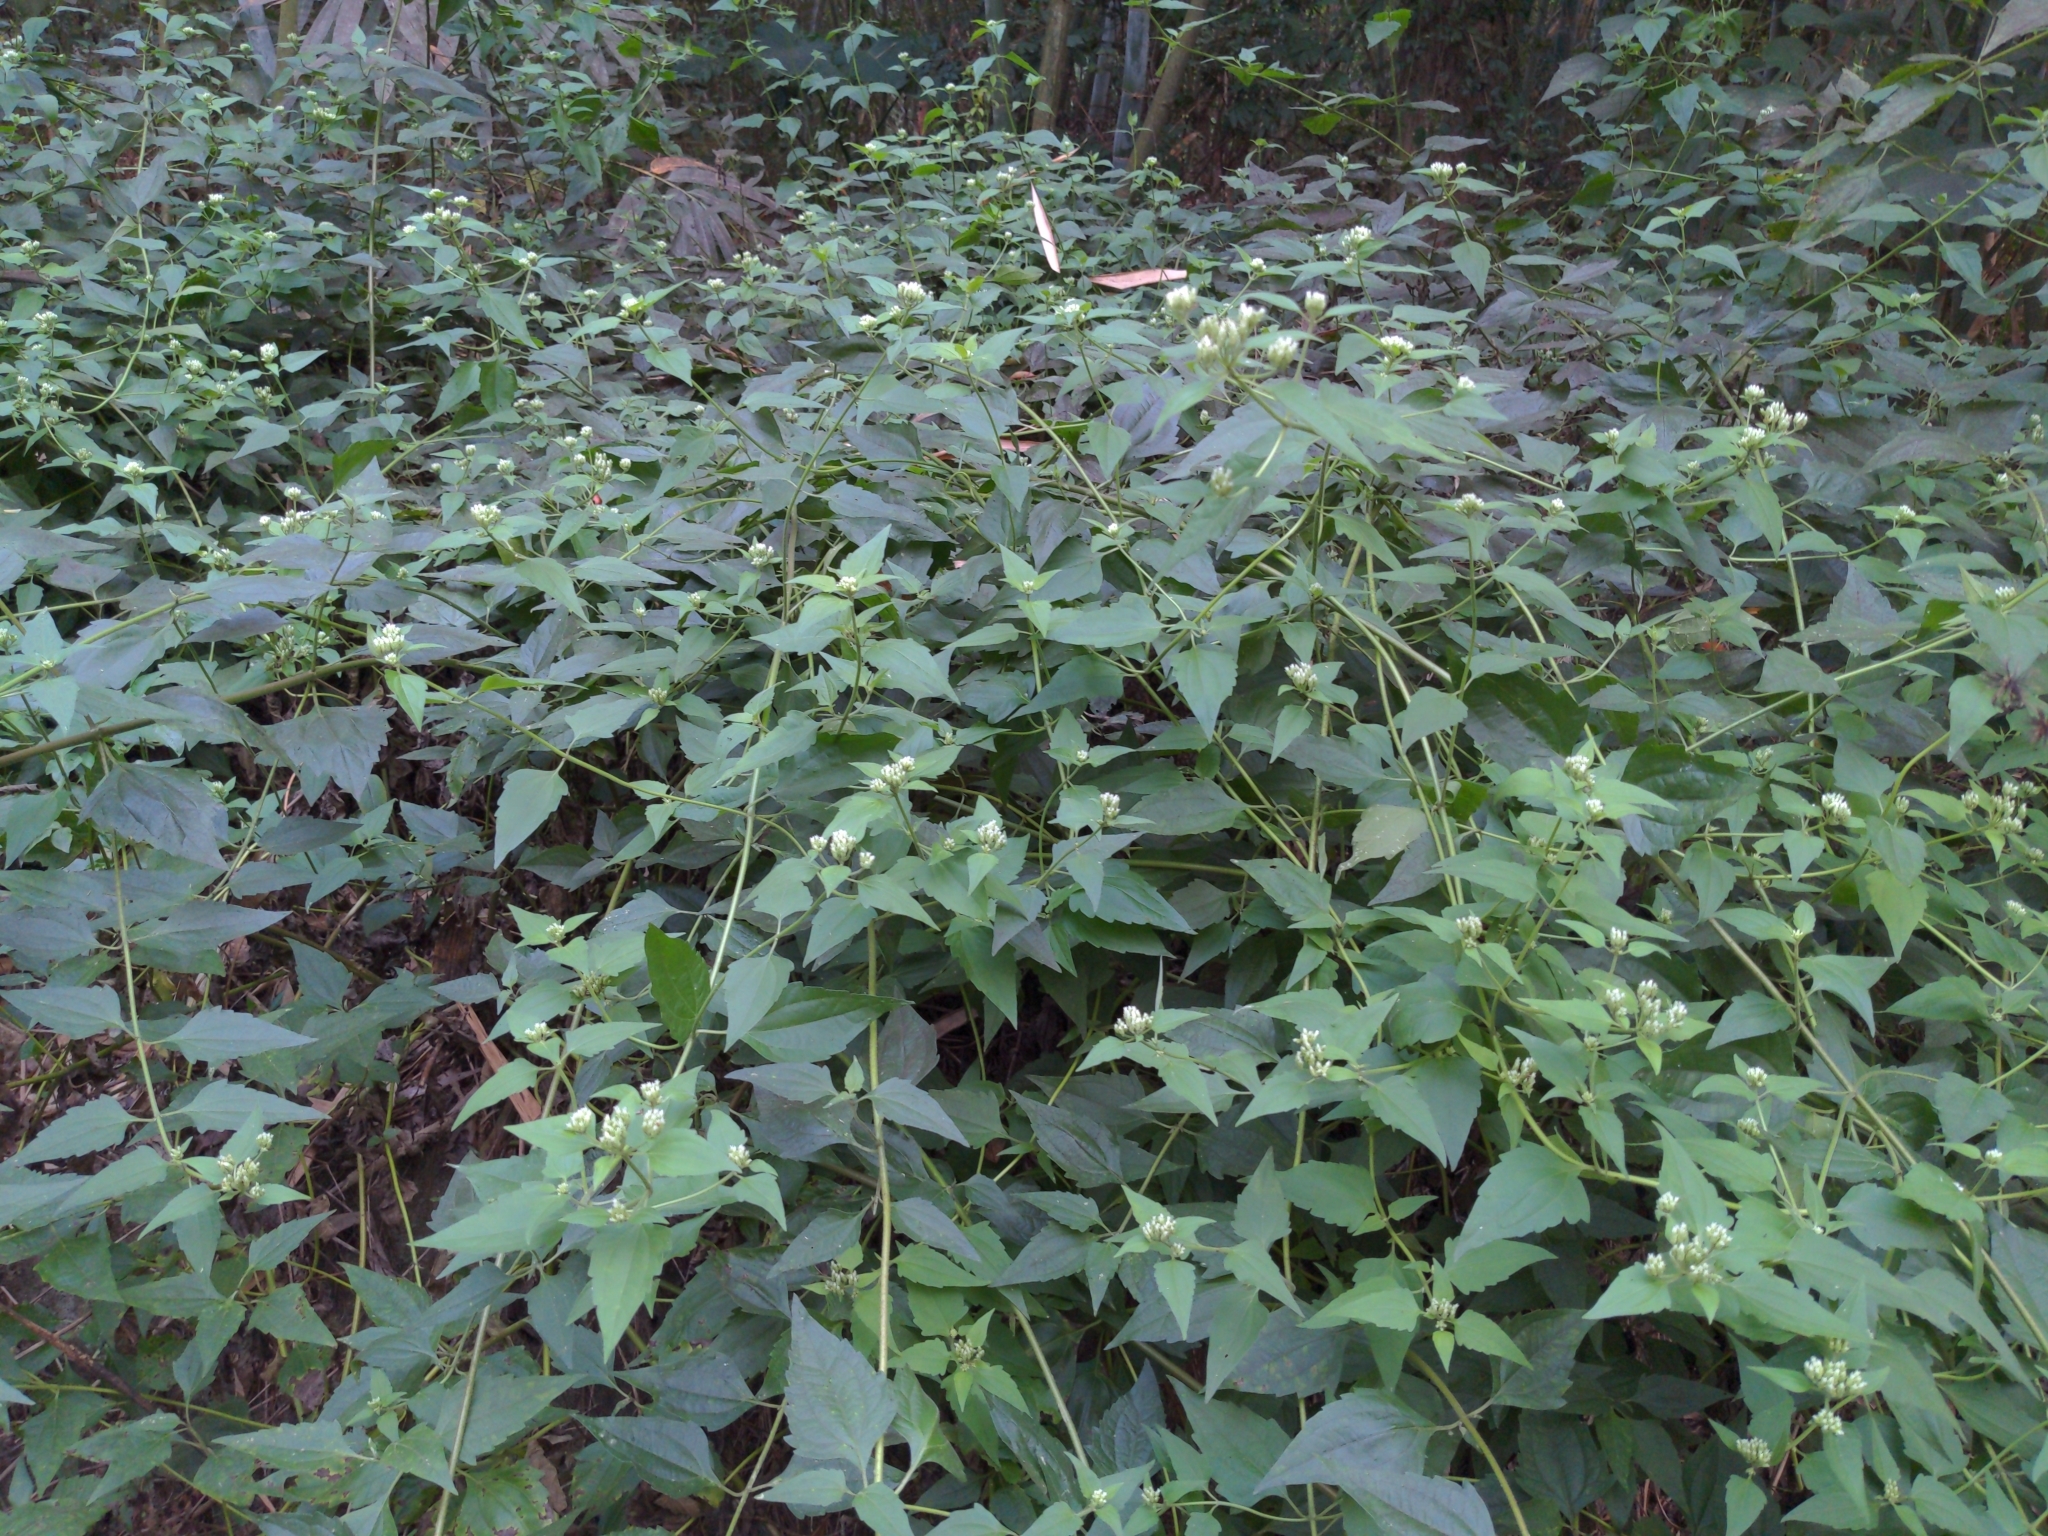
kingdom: Plantae
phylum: Tracheophyta
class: Magnoliopsida
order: Asterales
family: Asteraceae
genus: Chromolaena
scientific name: Chromolaena odorata
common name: Siamweed
